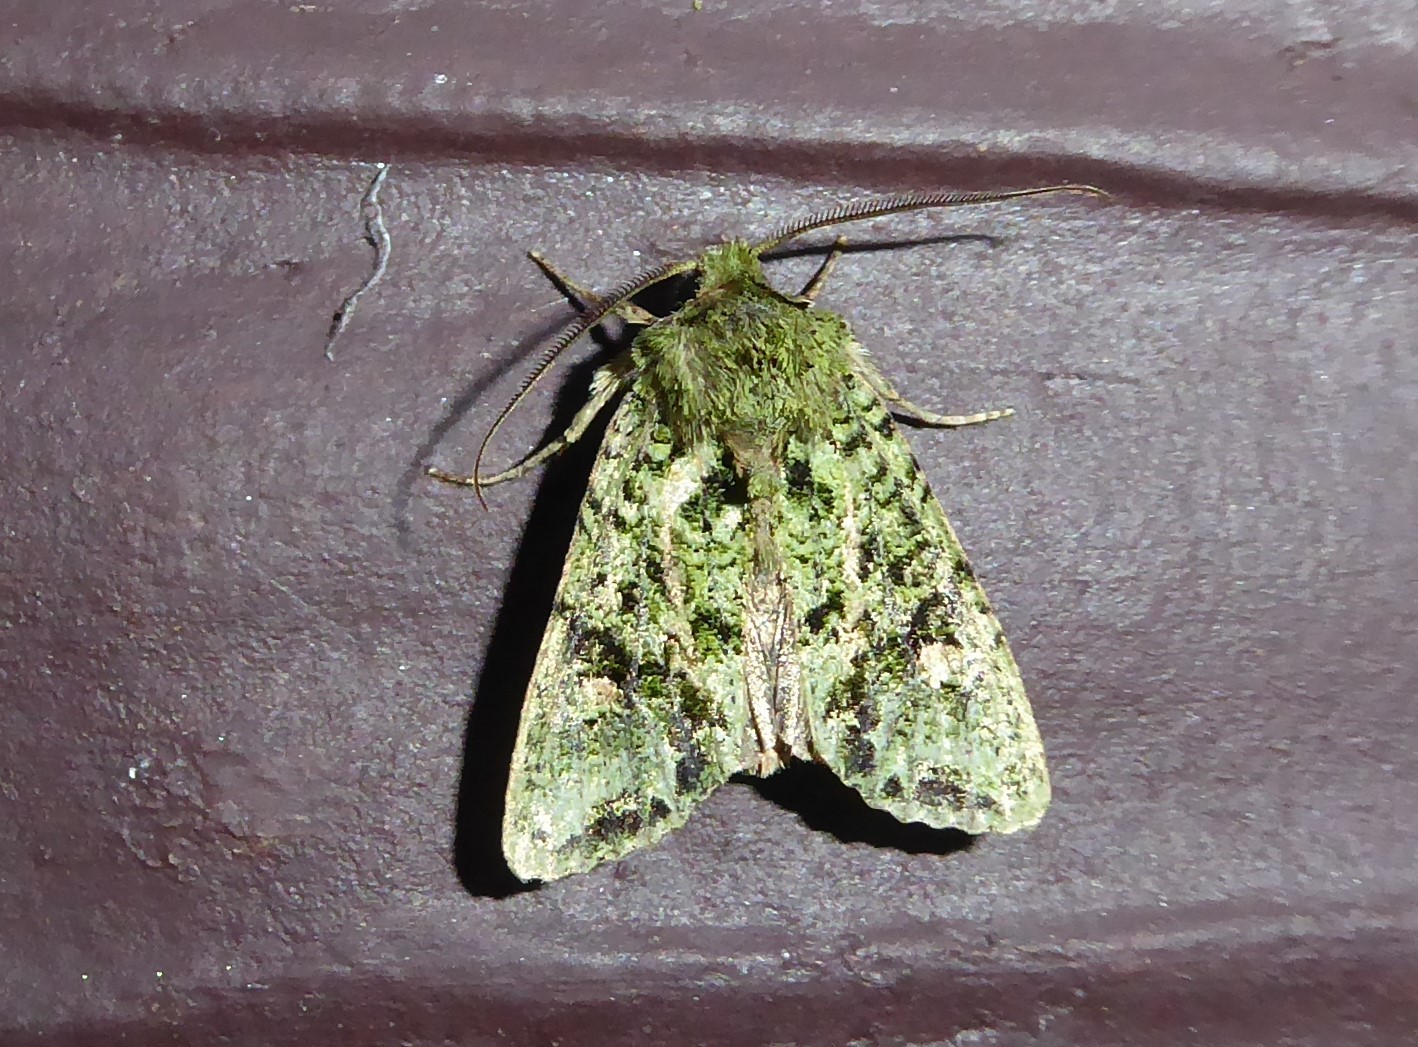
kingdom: Animalia
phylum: Arthropoda
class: Insecta
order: Lepidoptera
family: Noctuidae
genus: Ichneutica
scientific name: Ichneutica
